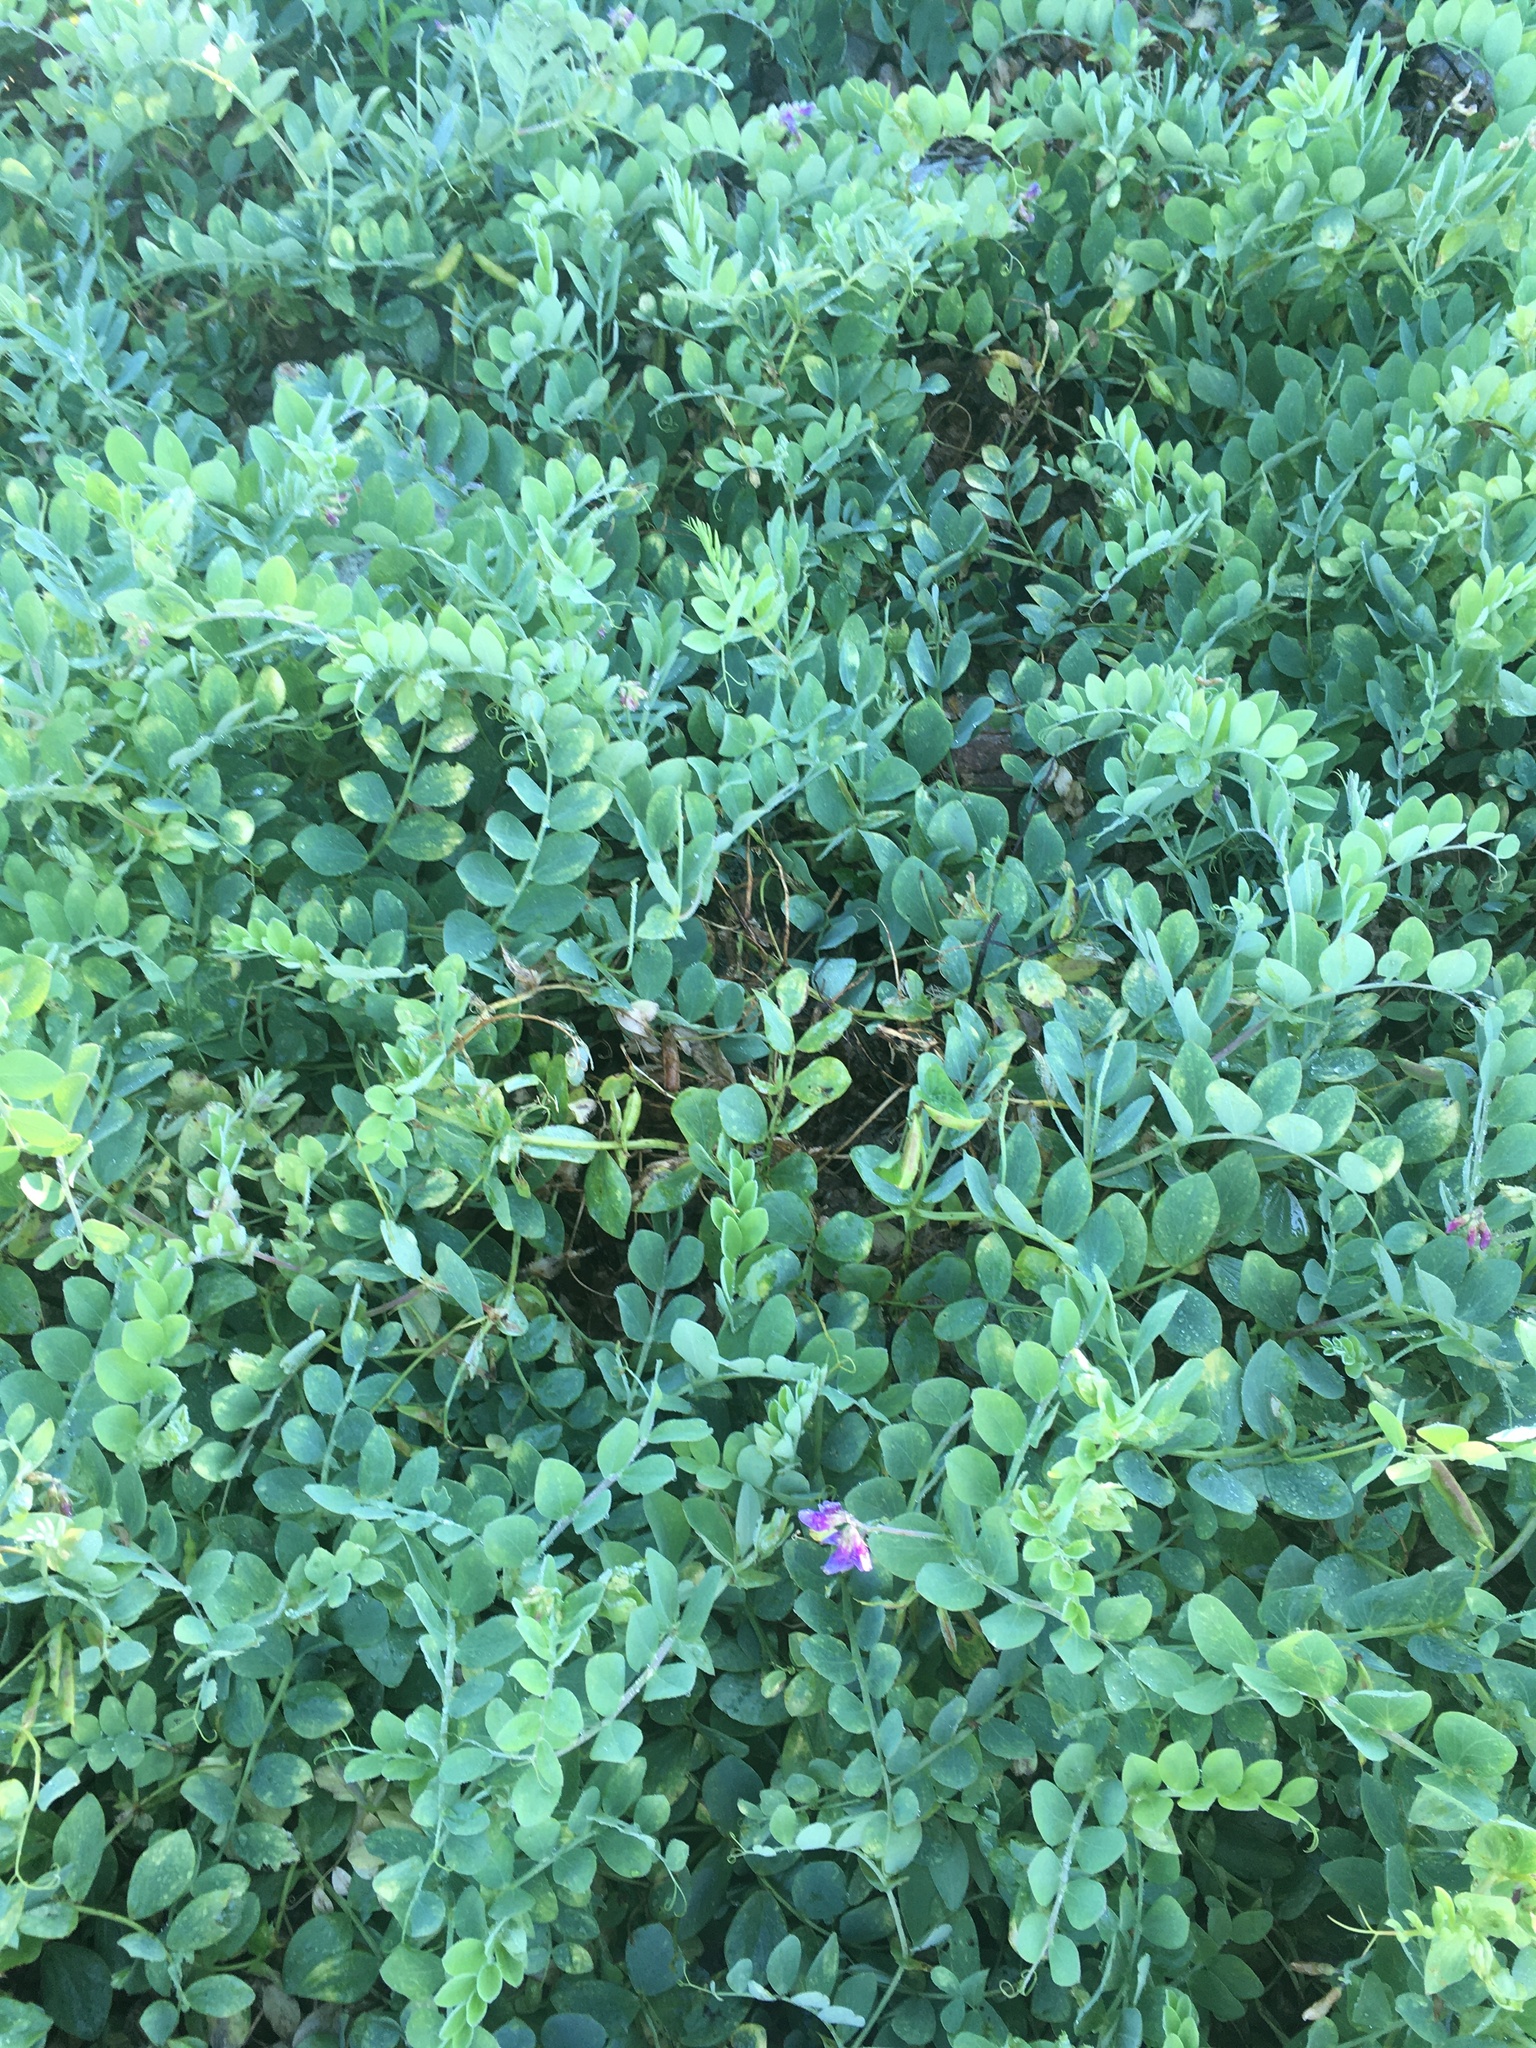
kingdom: Plantae
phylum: Tracheophyta
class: Magnoliopsida
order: Fabales
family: Fabaceae
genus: Lathyrus
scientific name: Lathyrus japonicus
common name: Sea pea
